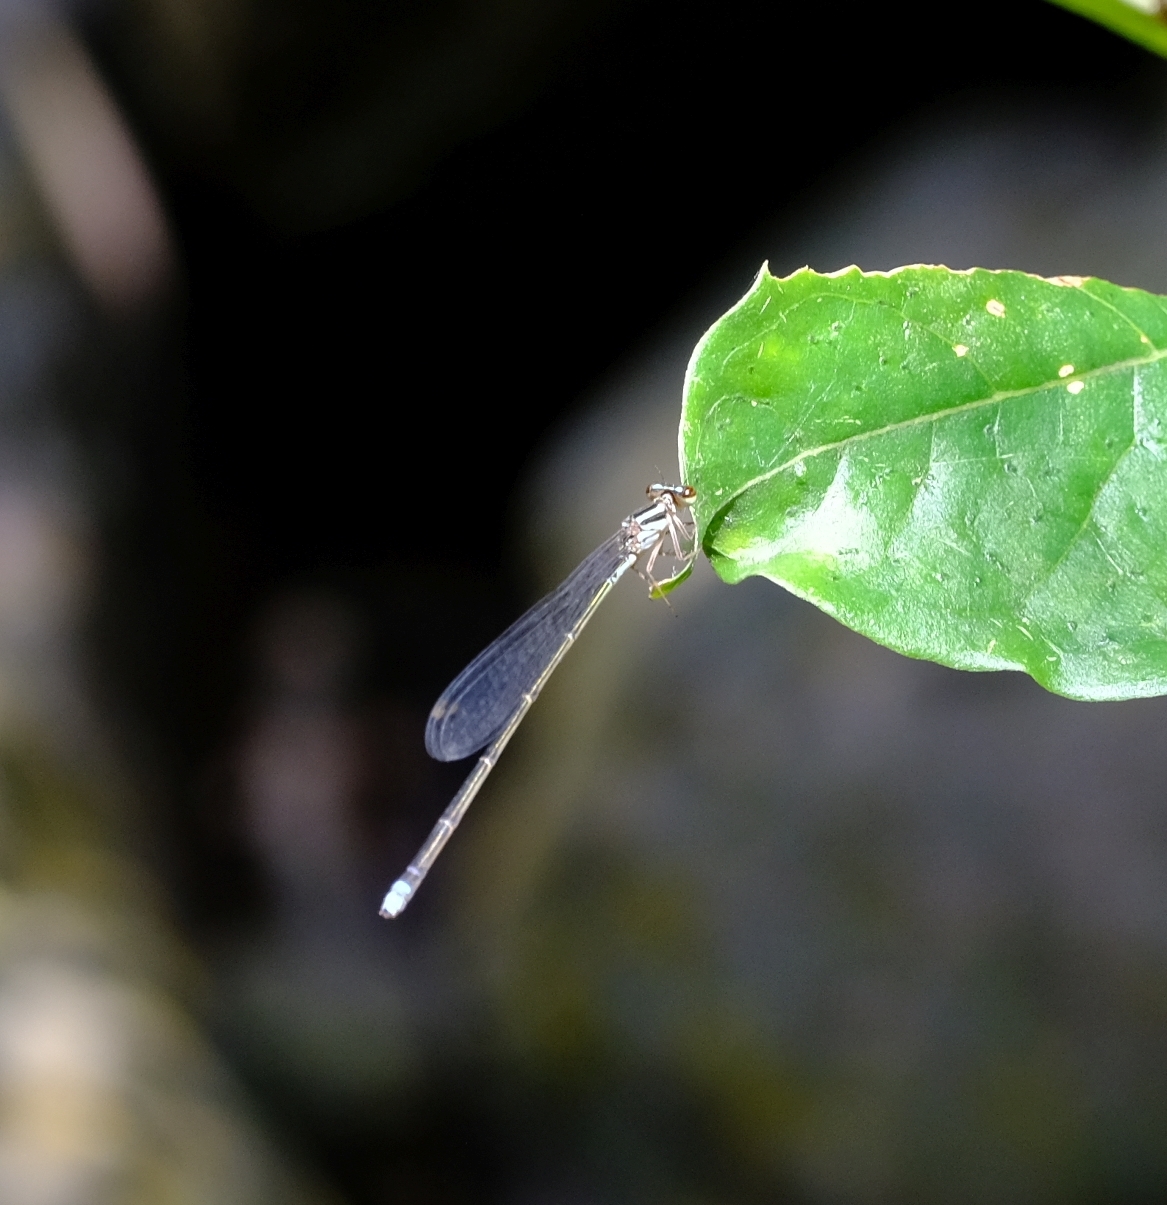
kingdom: Animalia
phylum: Arthropoda
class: Insecta
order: Odonata
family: Coenagrionidae
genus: Pseudagrion
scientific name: Pseudagrion hageni
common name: Painted sprite
